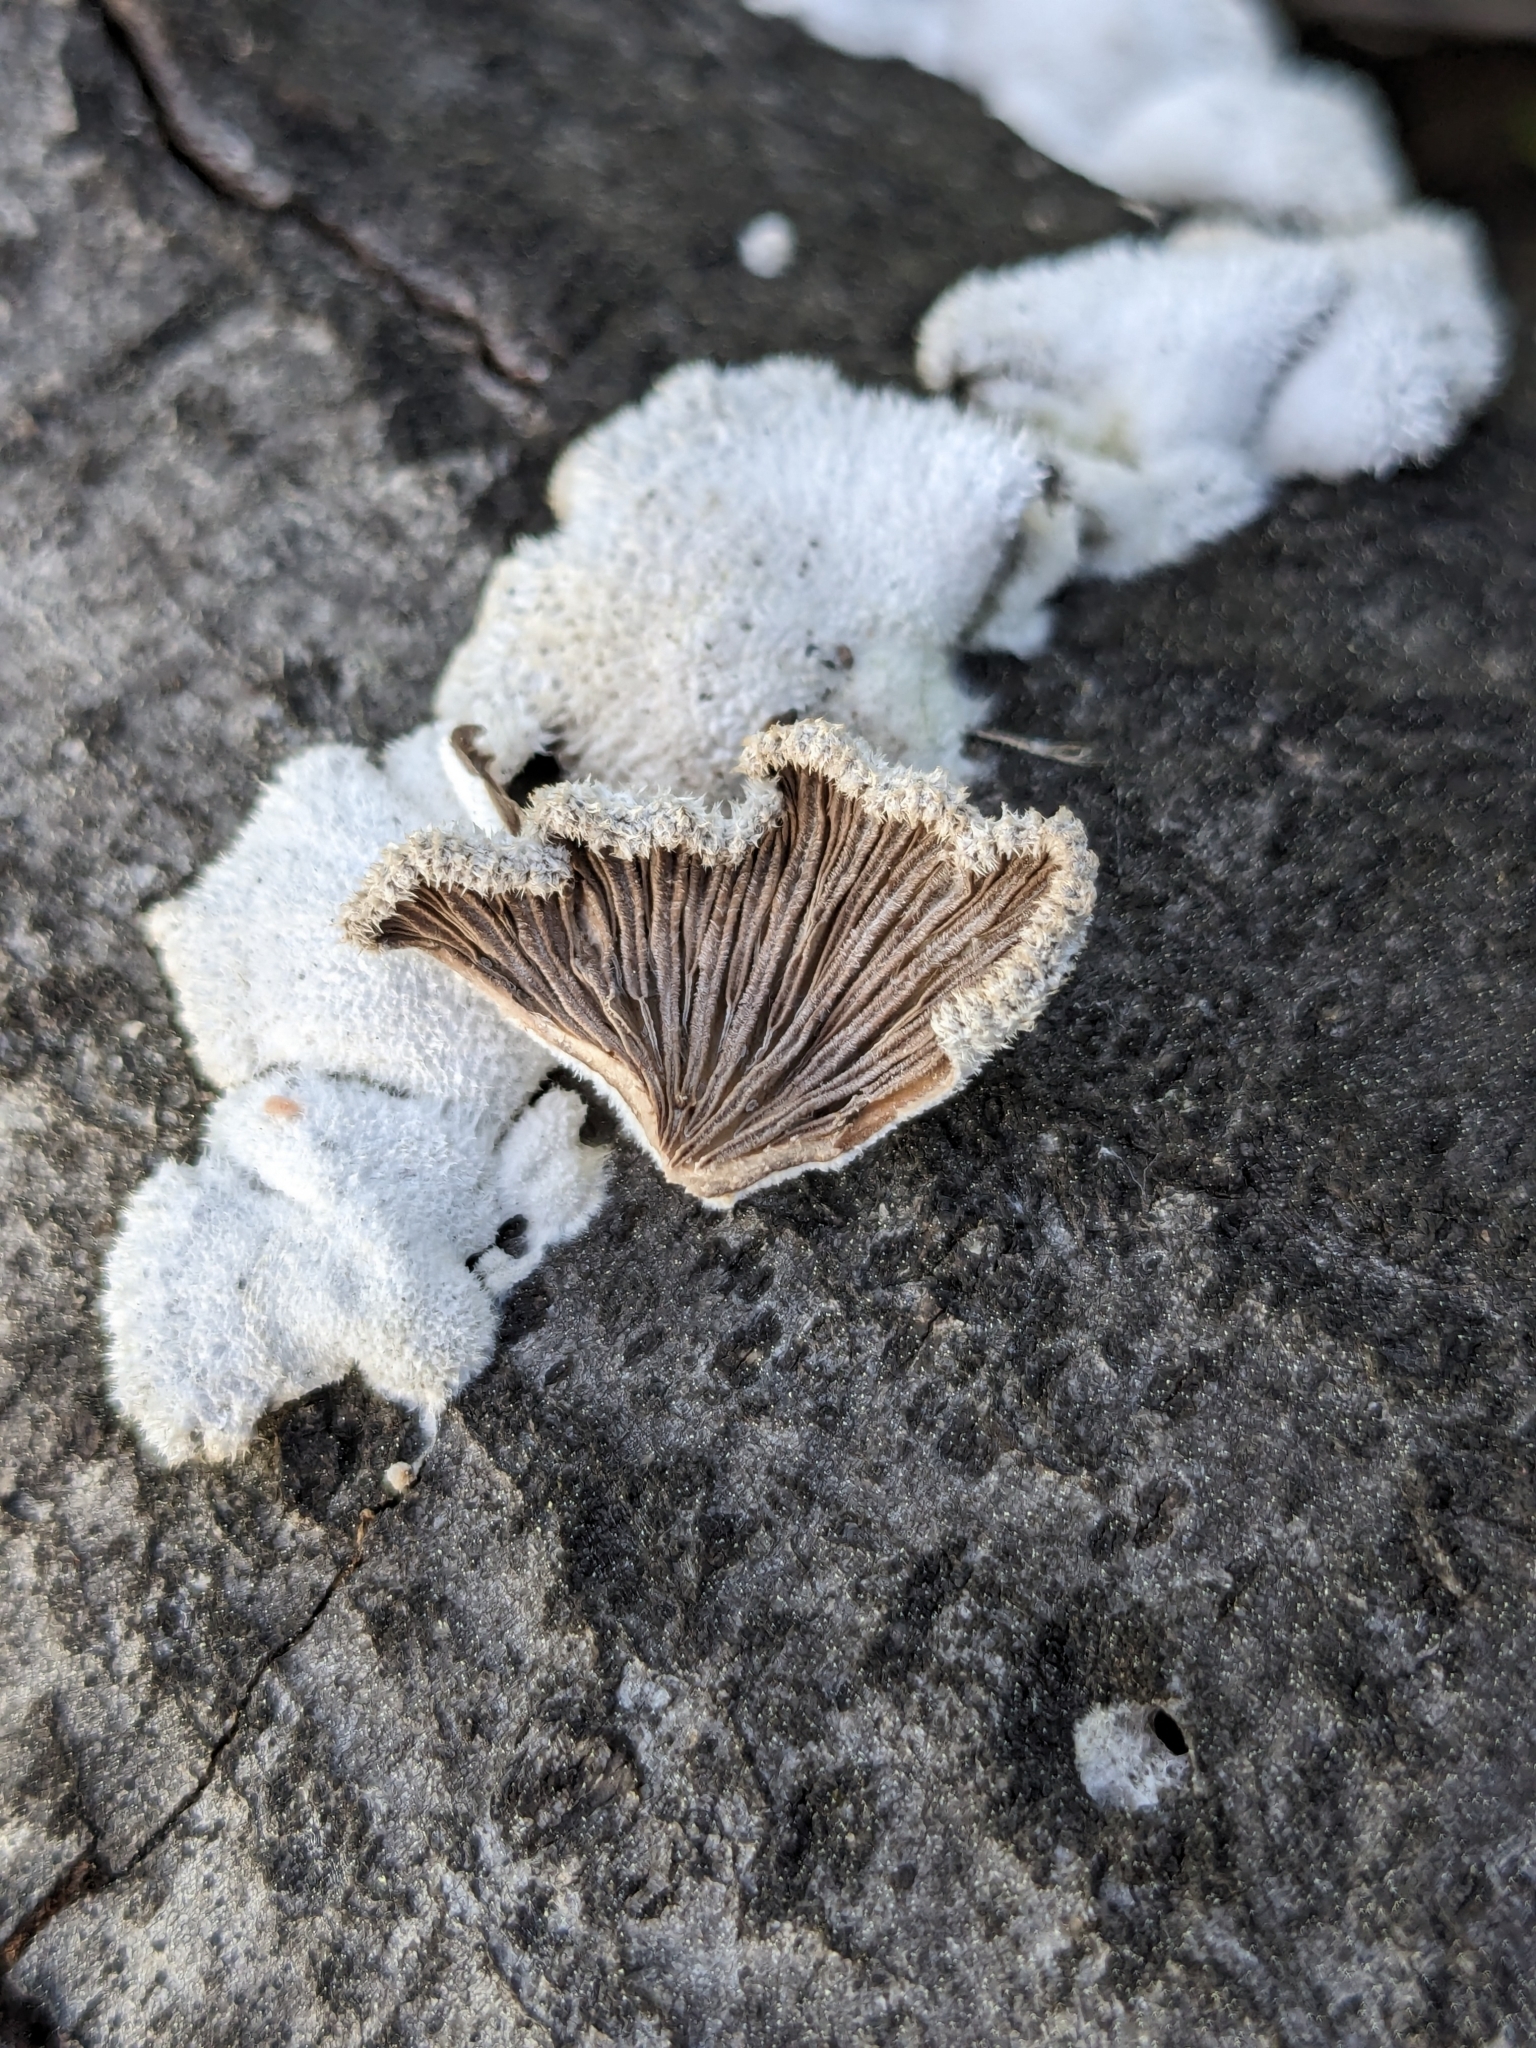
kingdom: Fungi
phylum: Basidiomycota
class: Agaricomycetes
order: Agaricales
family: Schizophyllaceae
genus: Schizophyllum
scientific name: Schizophyllum commune
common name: Common porecrust
